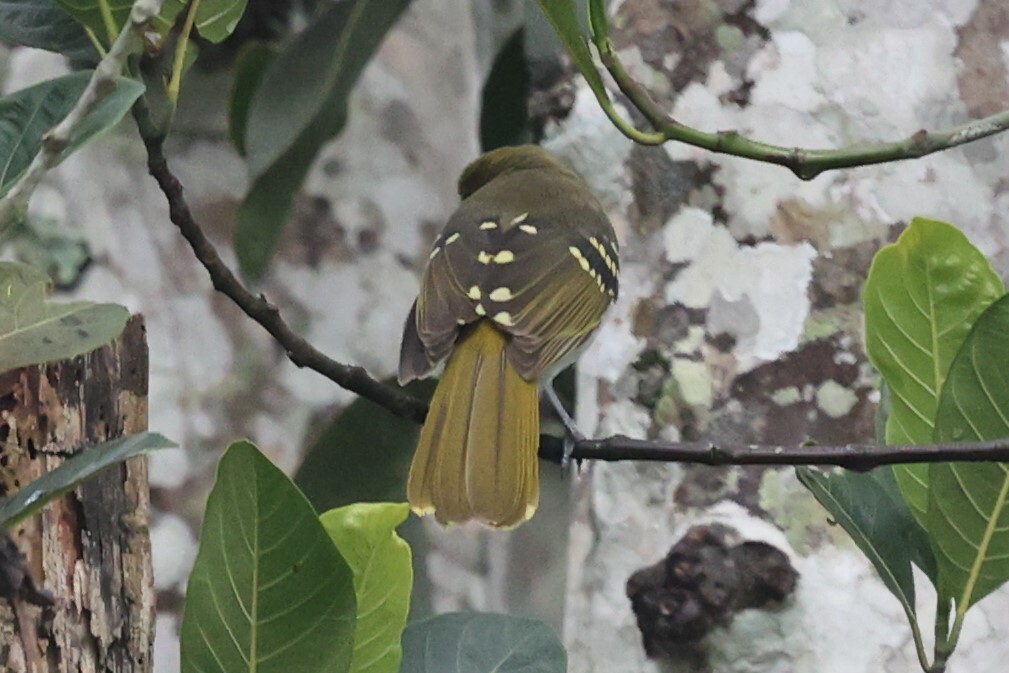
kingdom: Animalia
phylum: Chordata
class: Aves
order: Passeriformes
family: Nicatoridae
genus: Nicator
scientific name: Nicator chloris
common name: Western nicator
